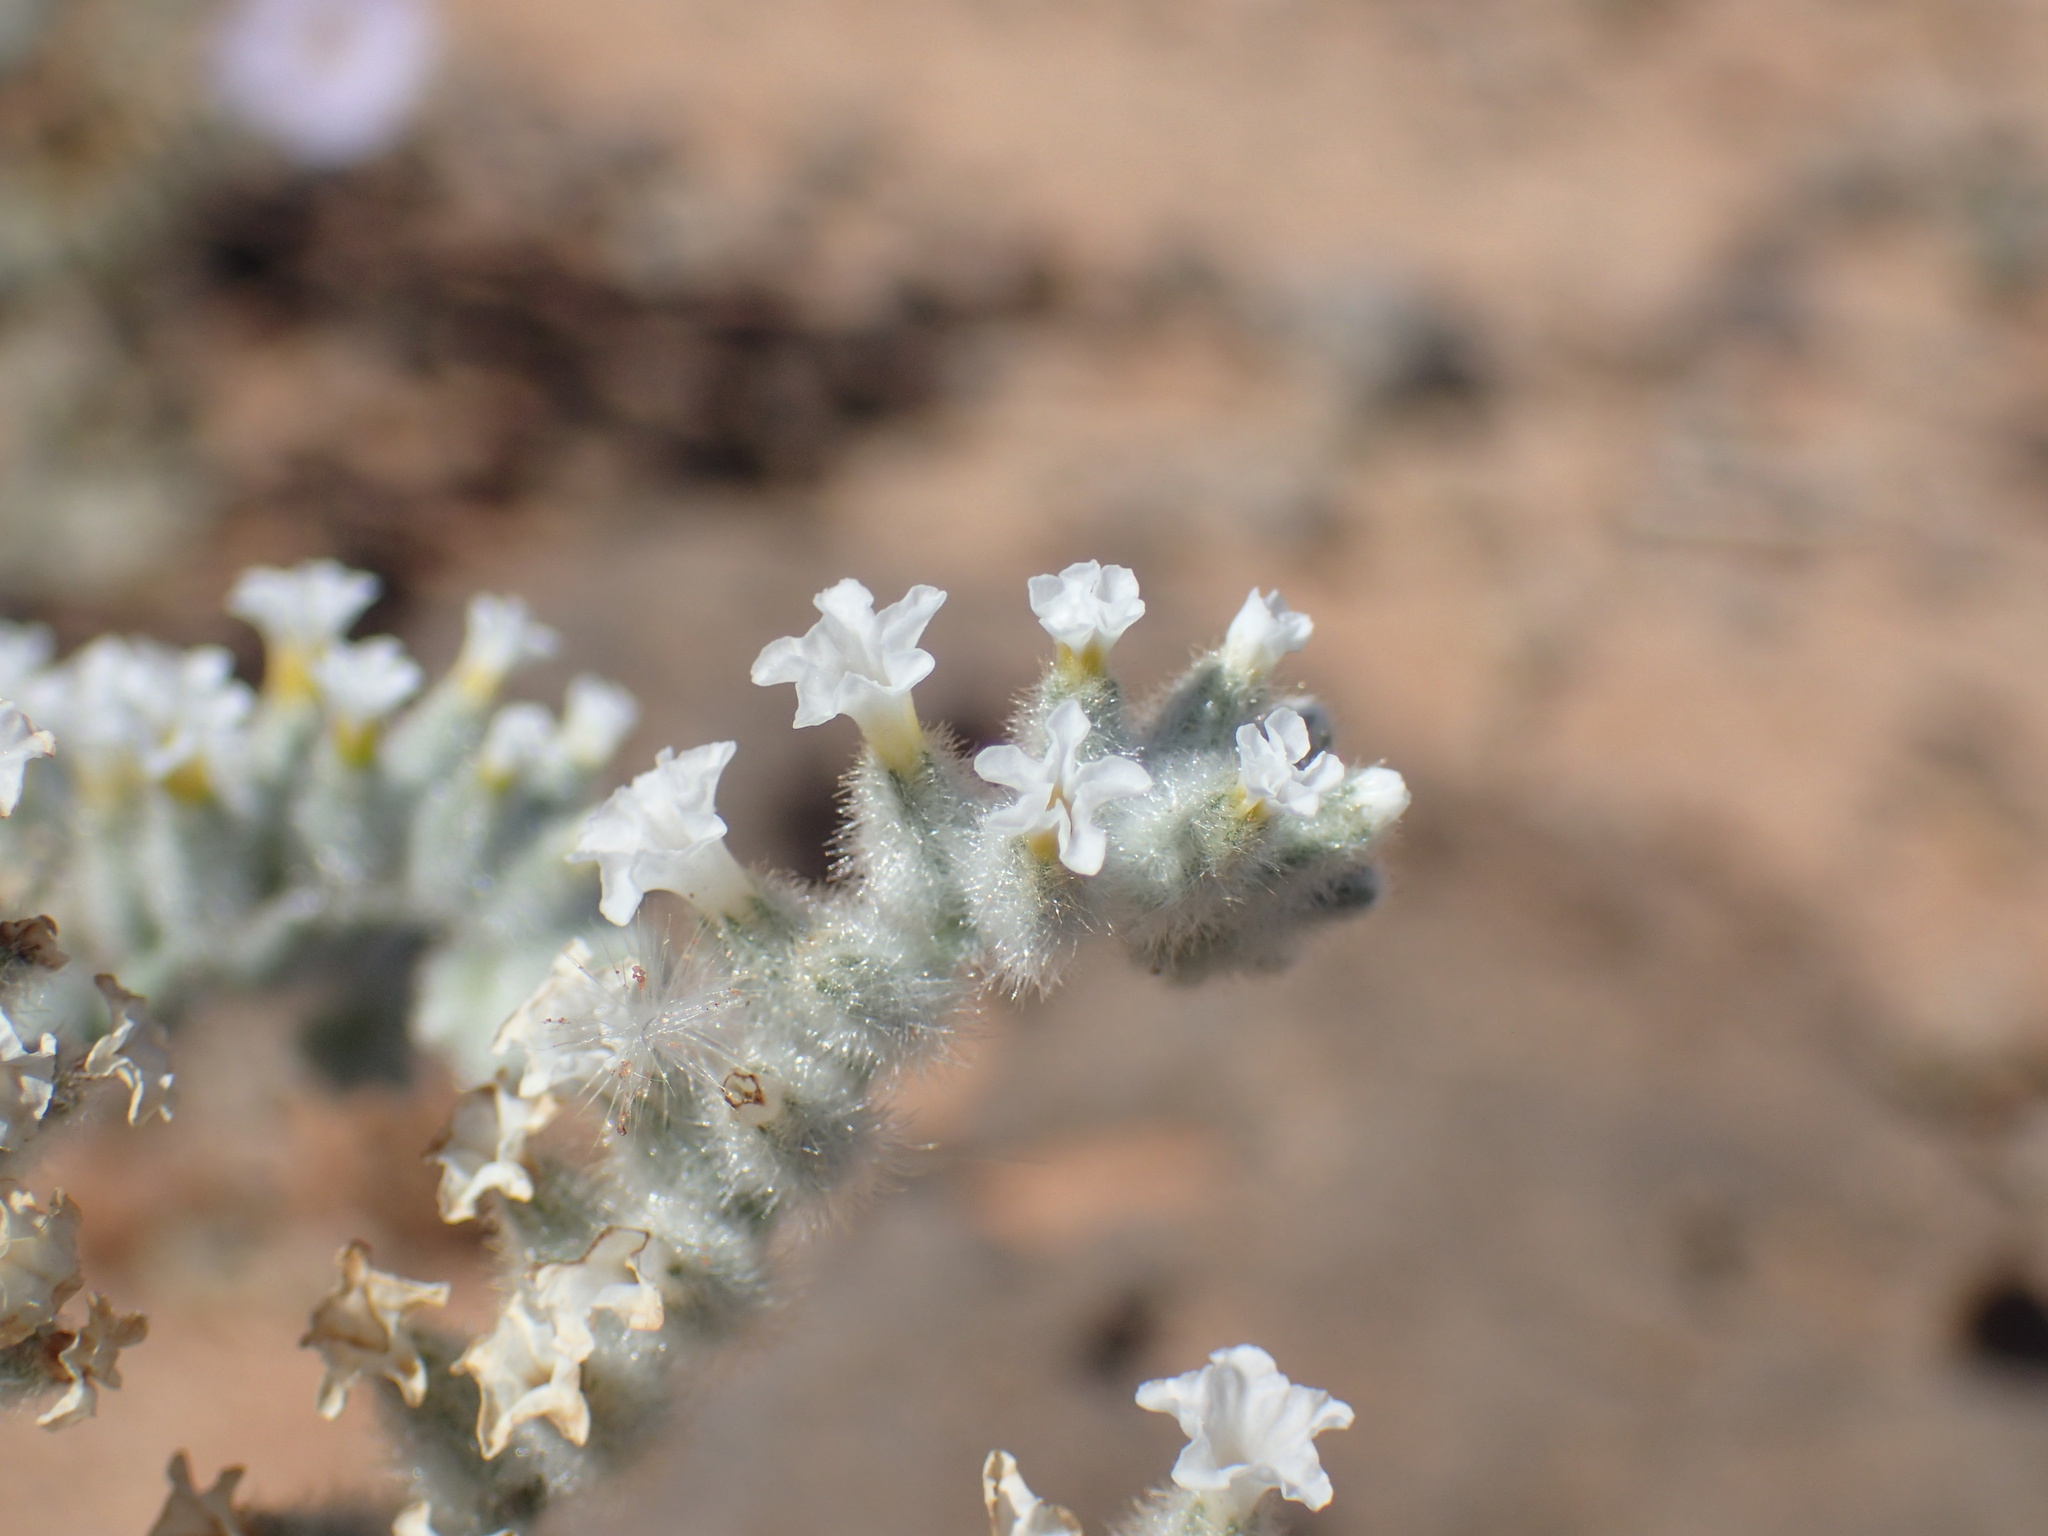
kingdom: Plantae
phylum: Tracheophyta
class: Magnoliopsida
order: Boraginales
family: Heliotropiaceae
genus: Heliotropium
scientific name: Heliotropium tubulosum
